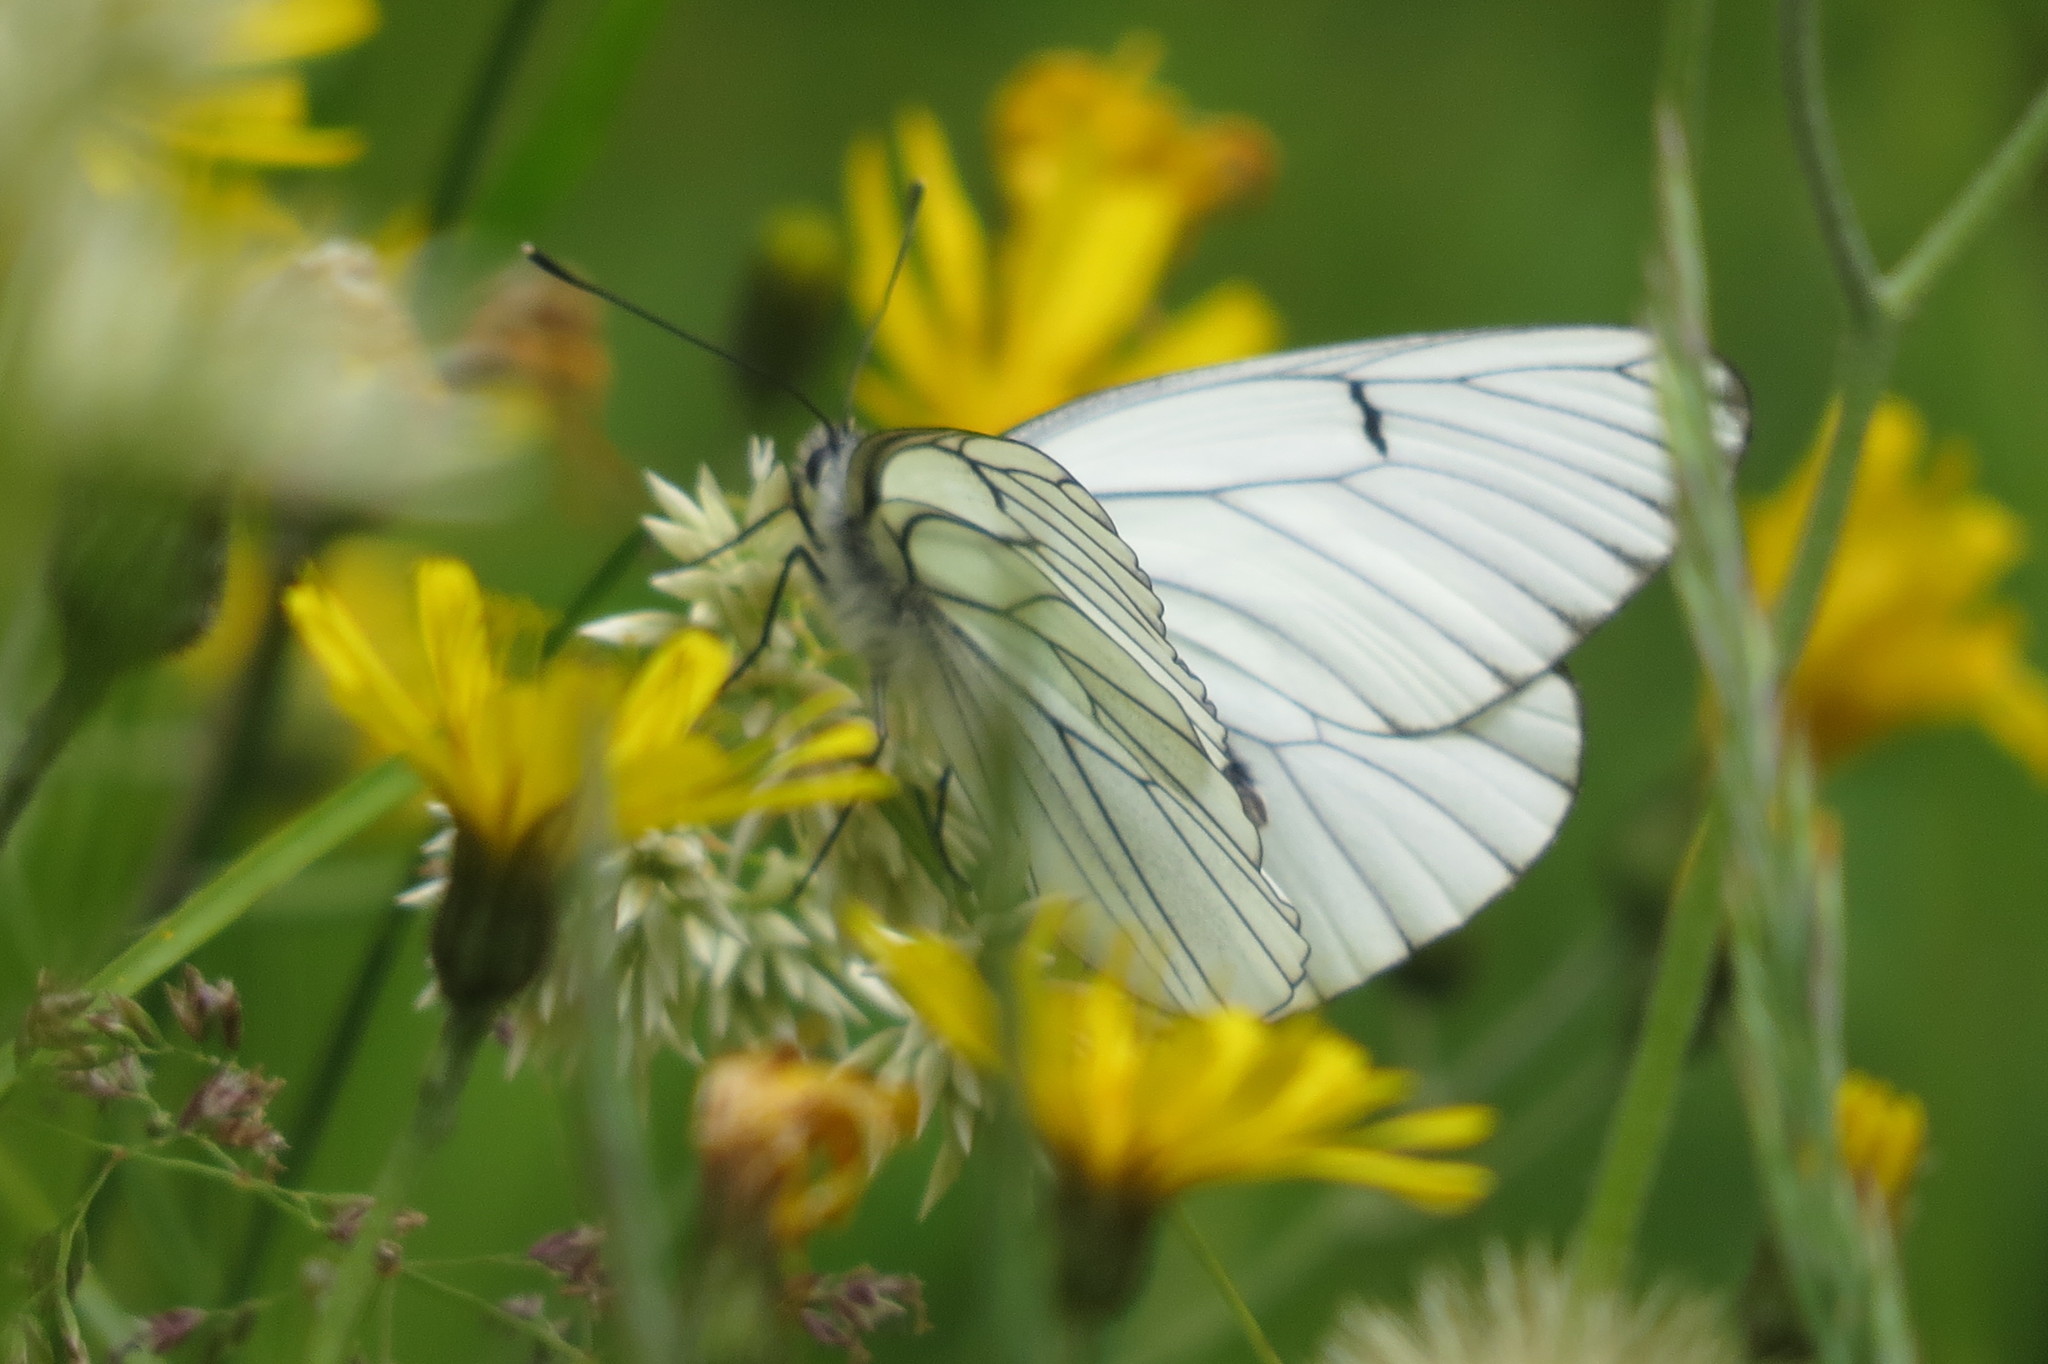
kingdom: Animalia
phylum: Arthropoda
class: Insecta
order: Lepidoptera
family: Pieridae
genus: Aporia
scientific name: Aporia crataegi
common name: Black-veined white
